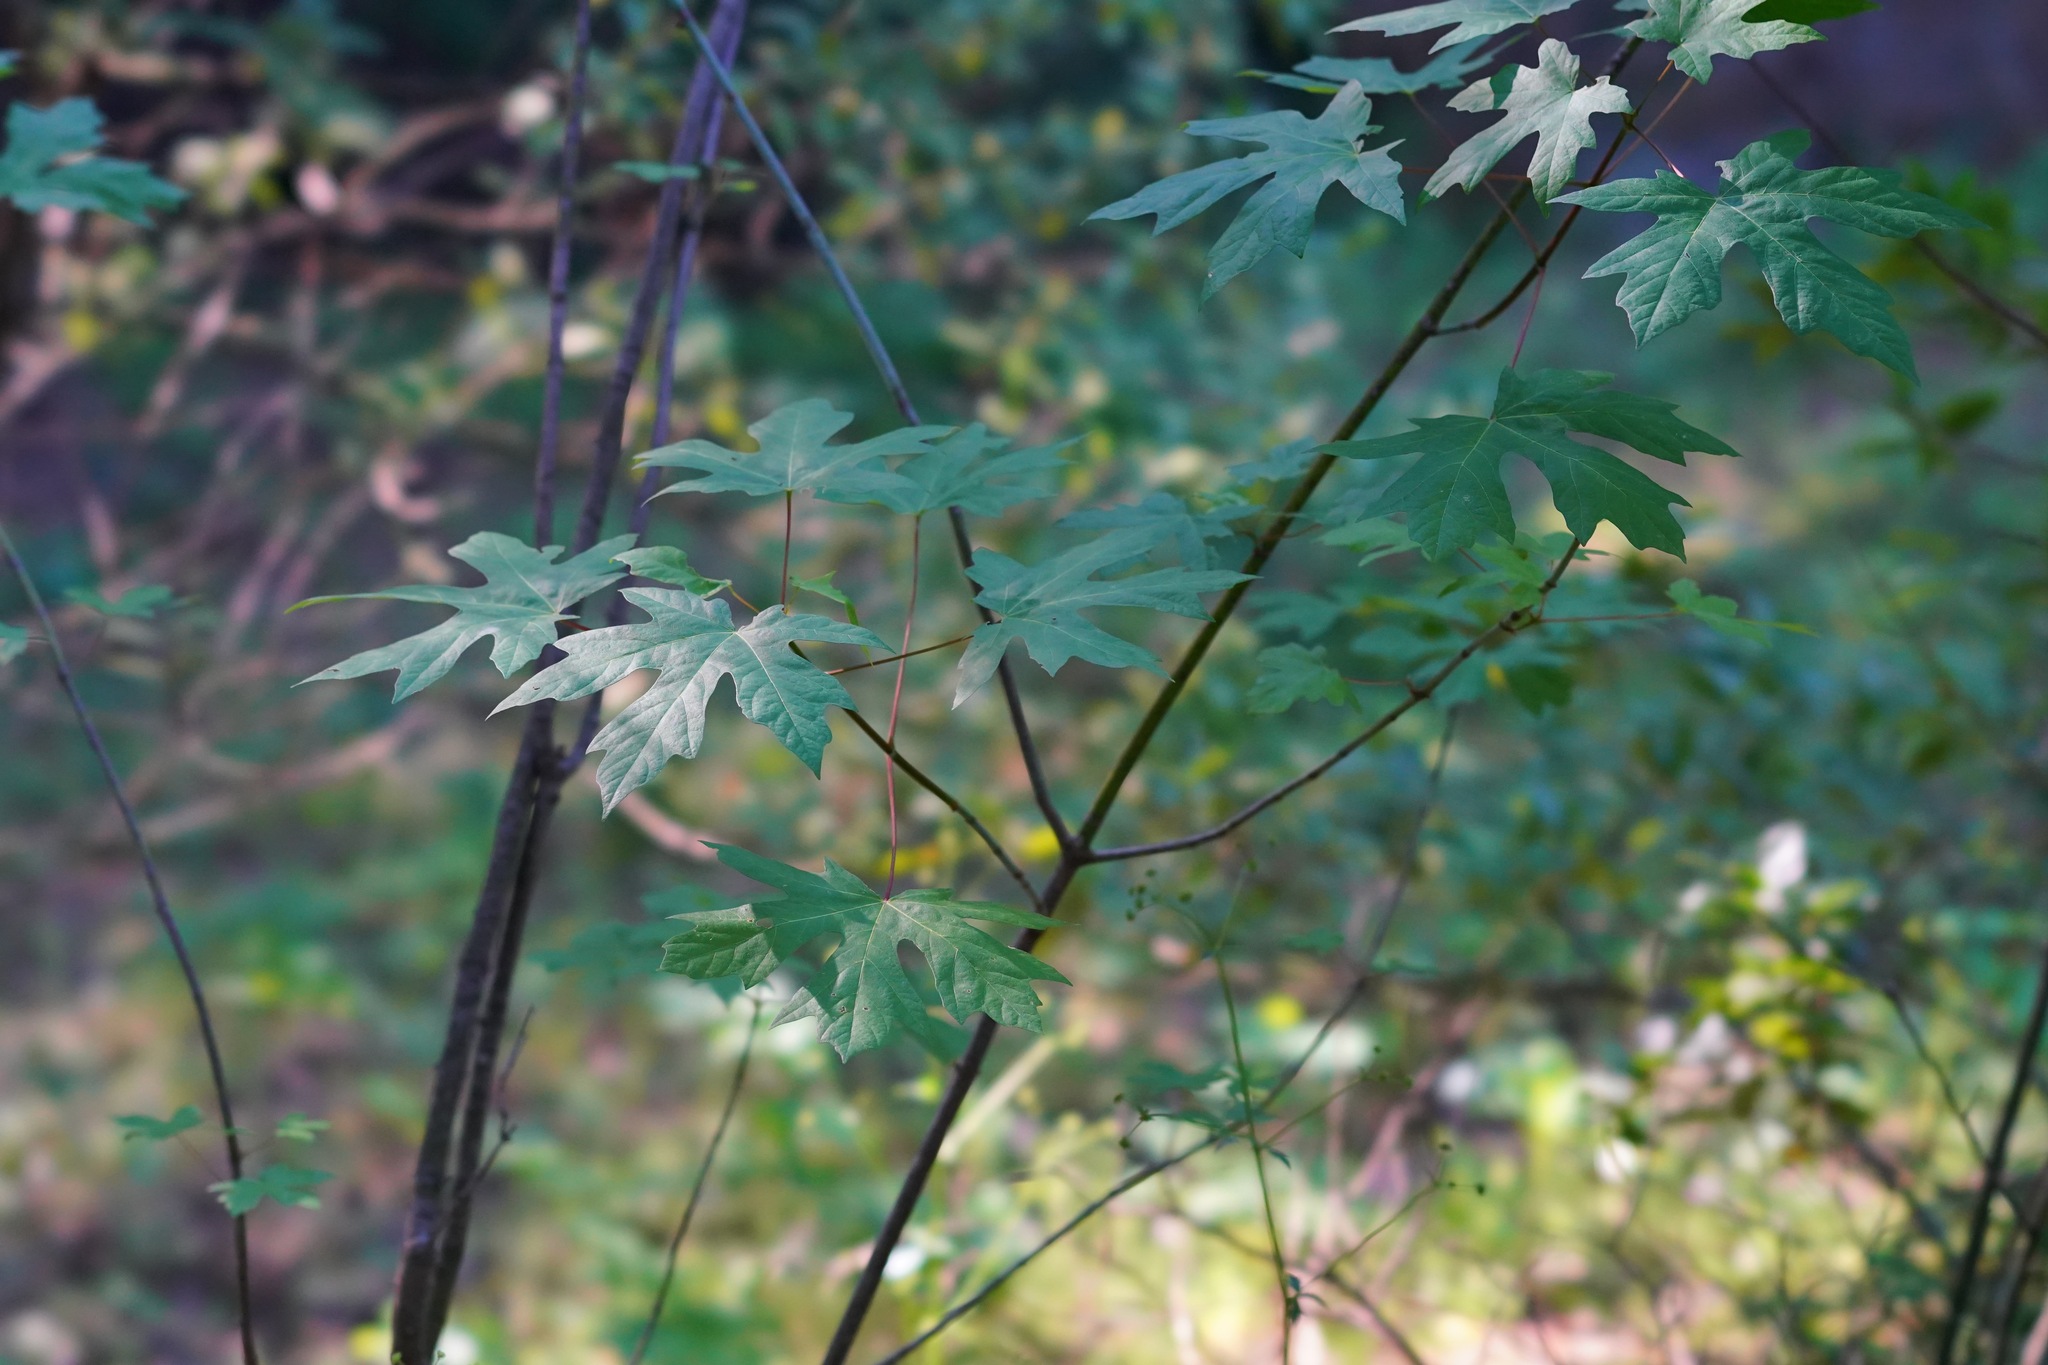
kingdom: Plantae
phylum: Tracheophyta
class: Magnoliopsida
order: Sapindales
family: Sapindaceae
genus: Acer
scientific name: Acer macrophyllum
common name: Oregon maple
